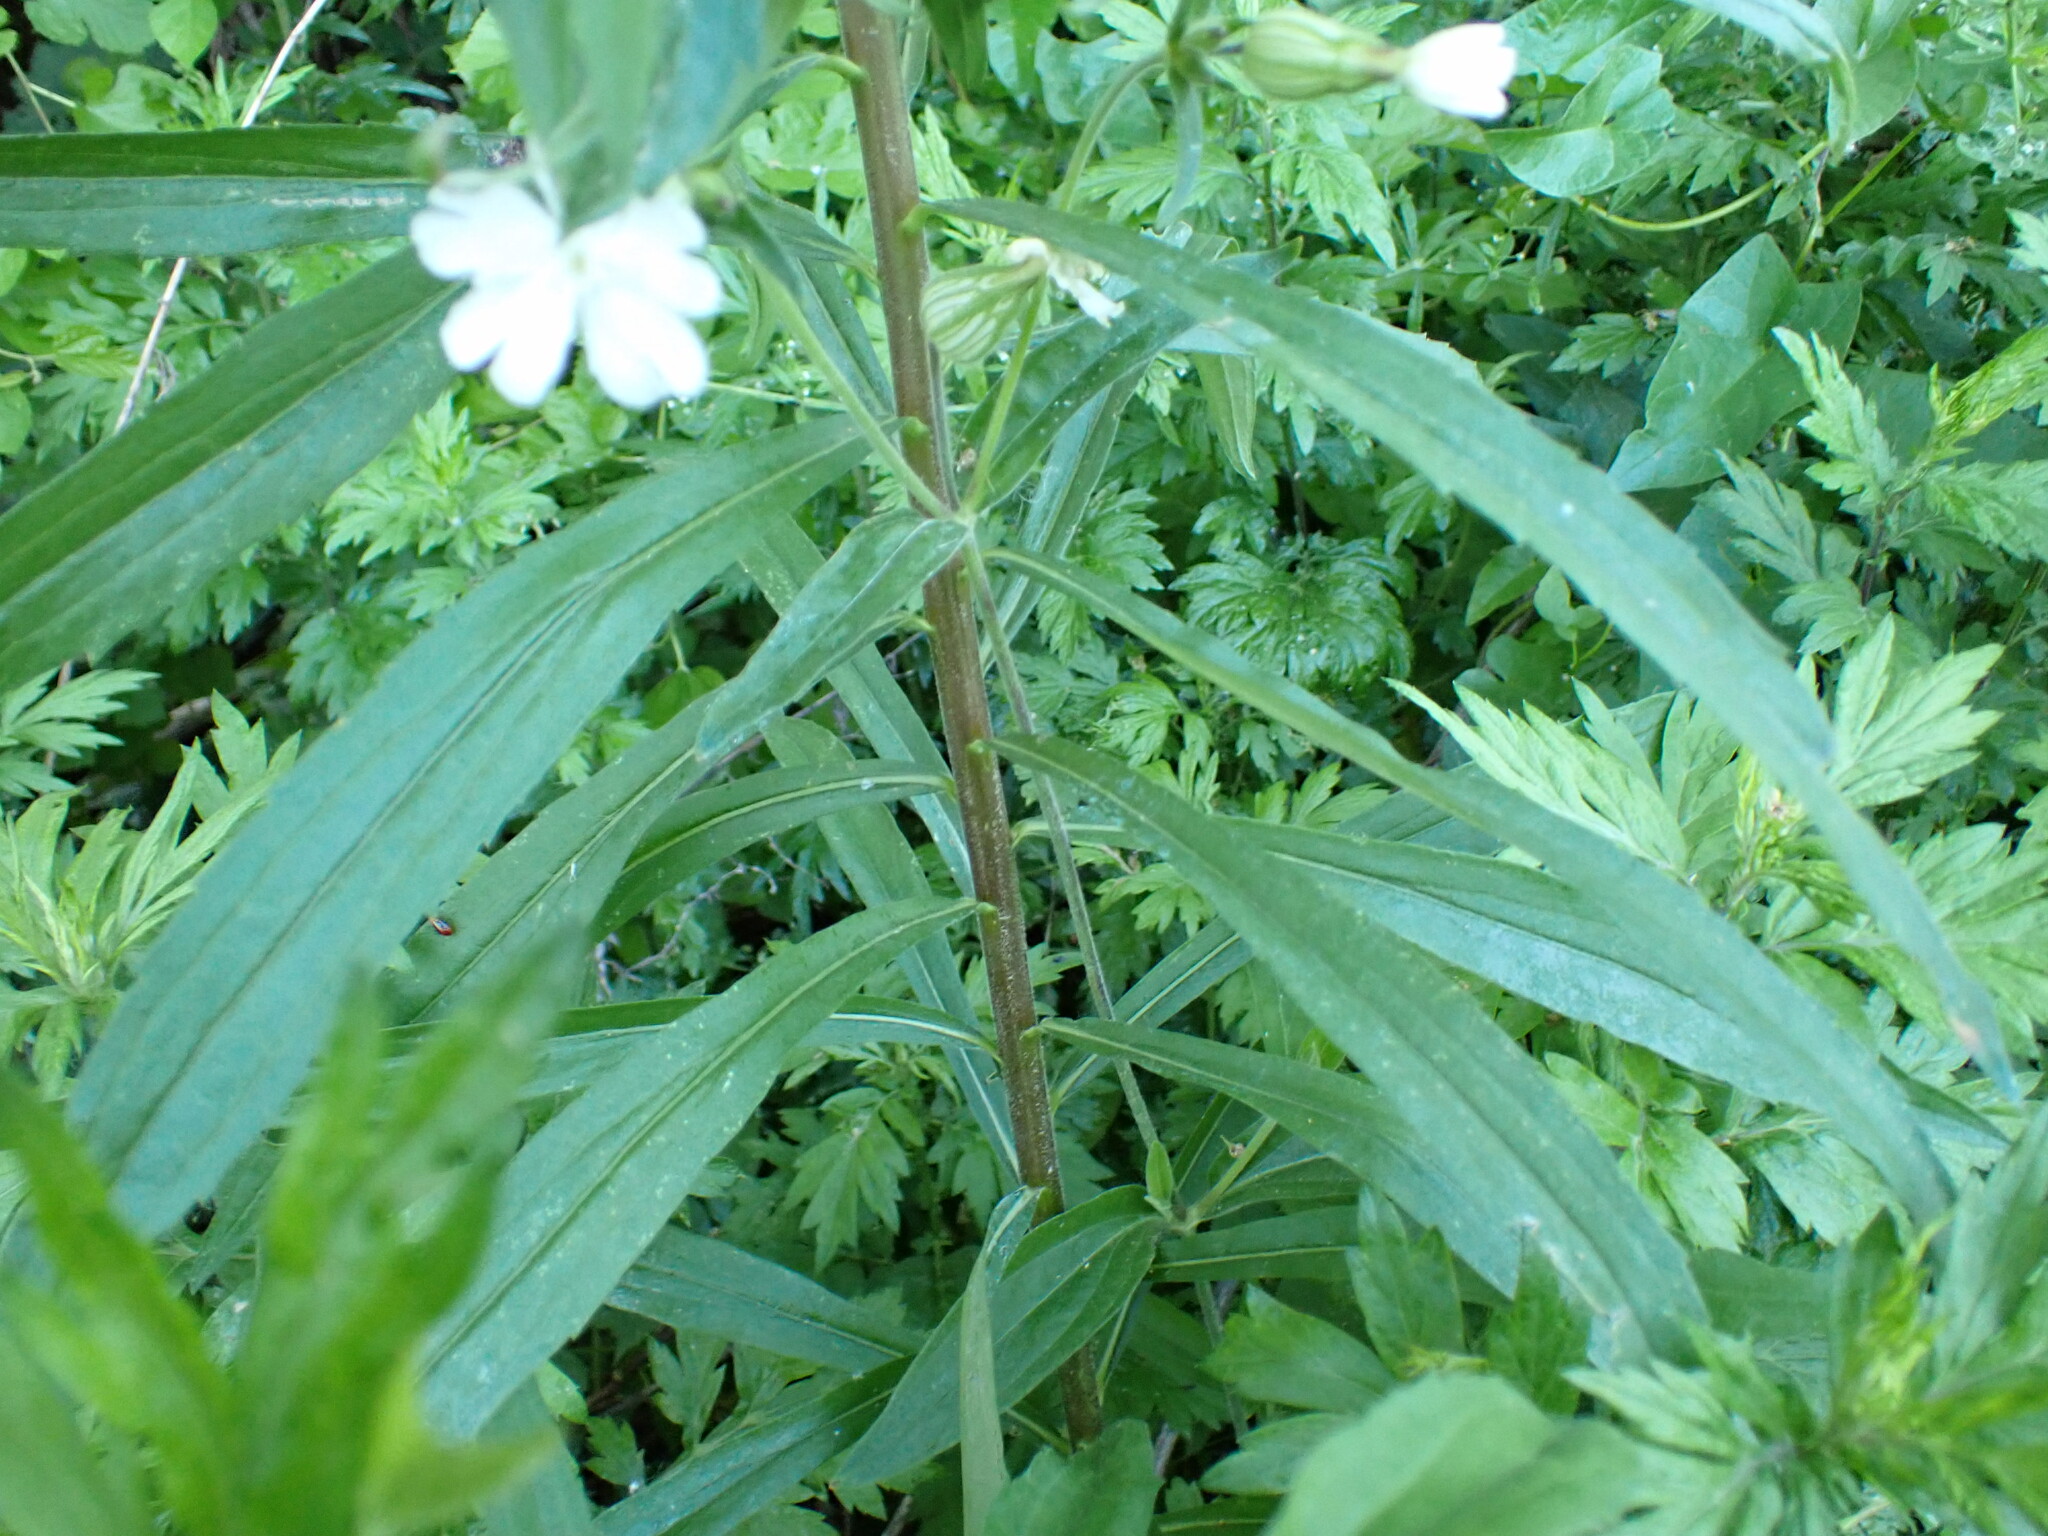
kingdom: Plantae
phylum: Tracheophyta
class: Magnoliopsida
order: Caryophyllales
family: Caryophyllaceae
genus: Silene
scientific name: Silene latifolia
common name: White campion
